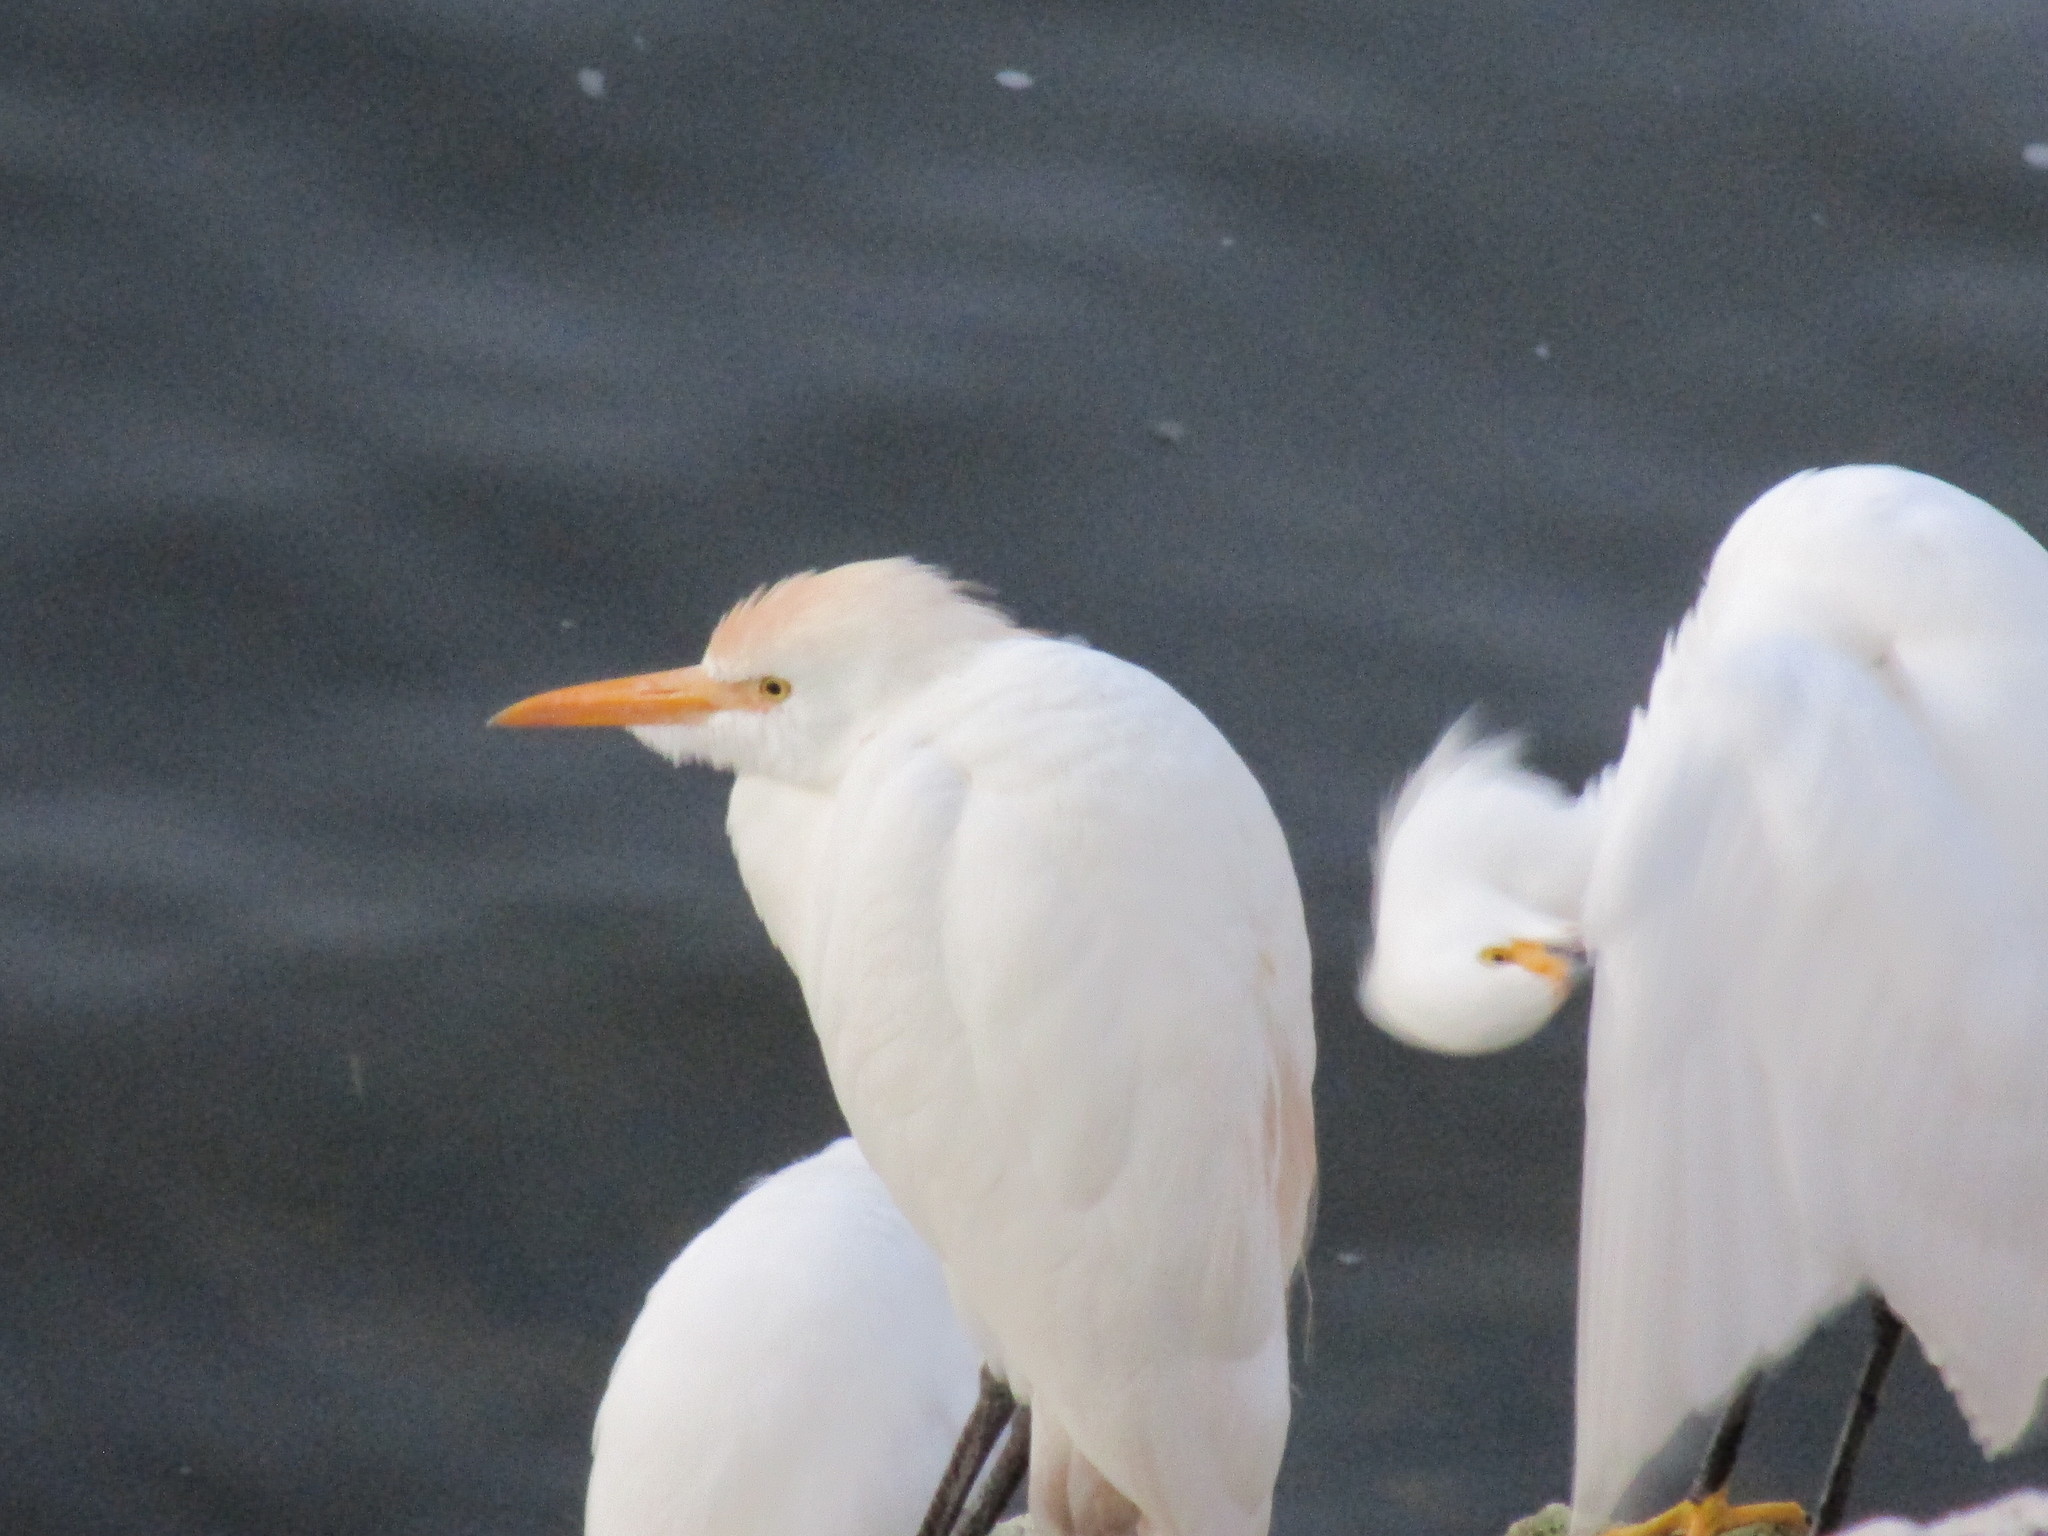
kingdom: Animalia
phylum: Chordata
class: Aves
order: Pelecaniformes
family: Ardeidae
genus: Bubulcus
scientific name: Bubulcus ibis
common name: Cattle egret
